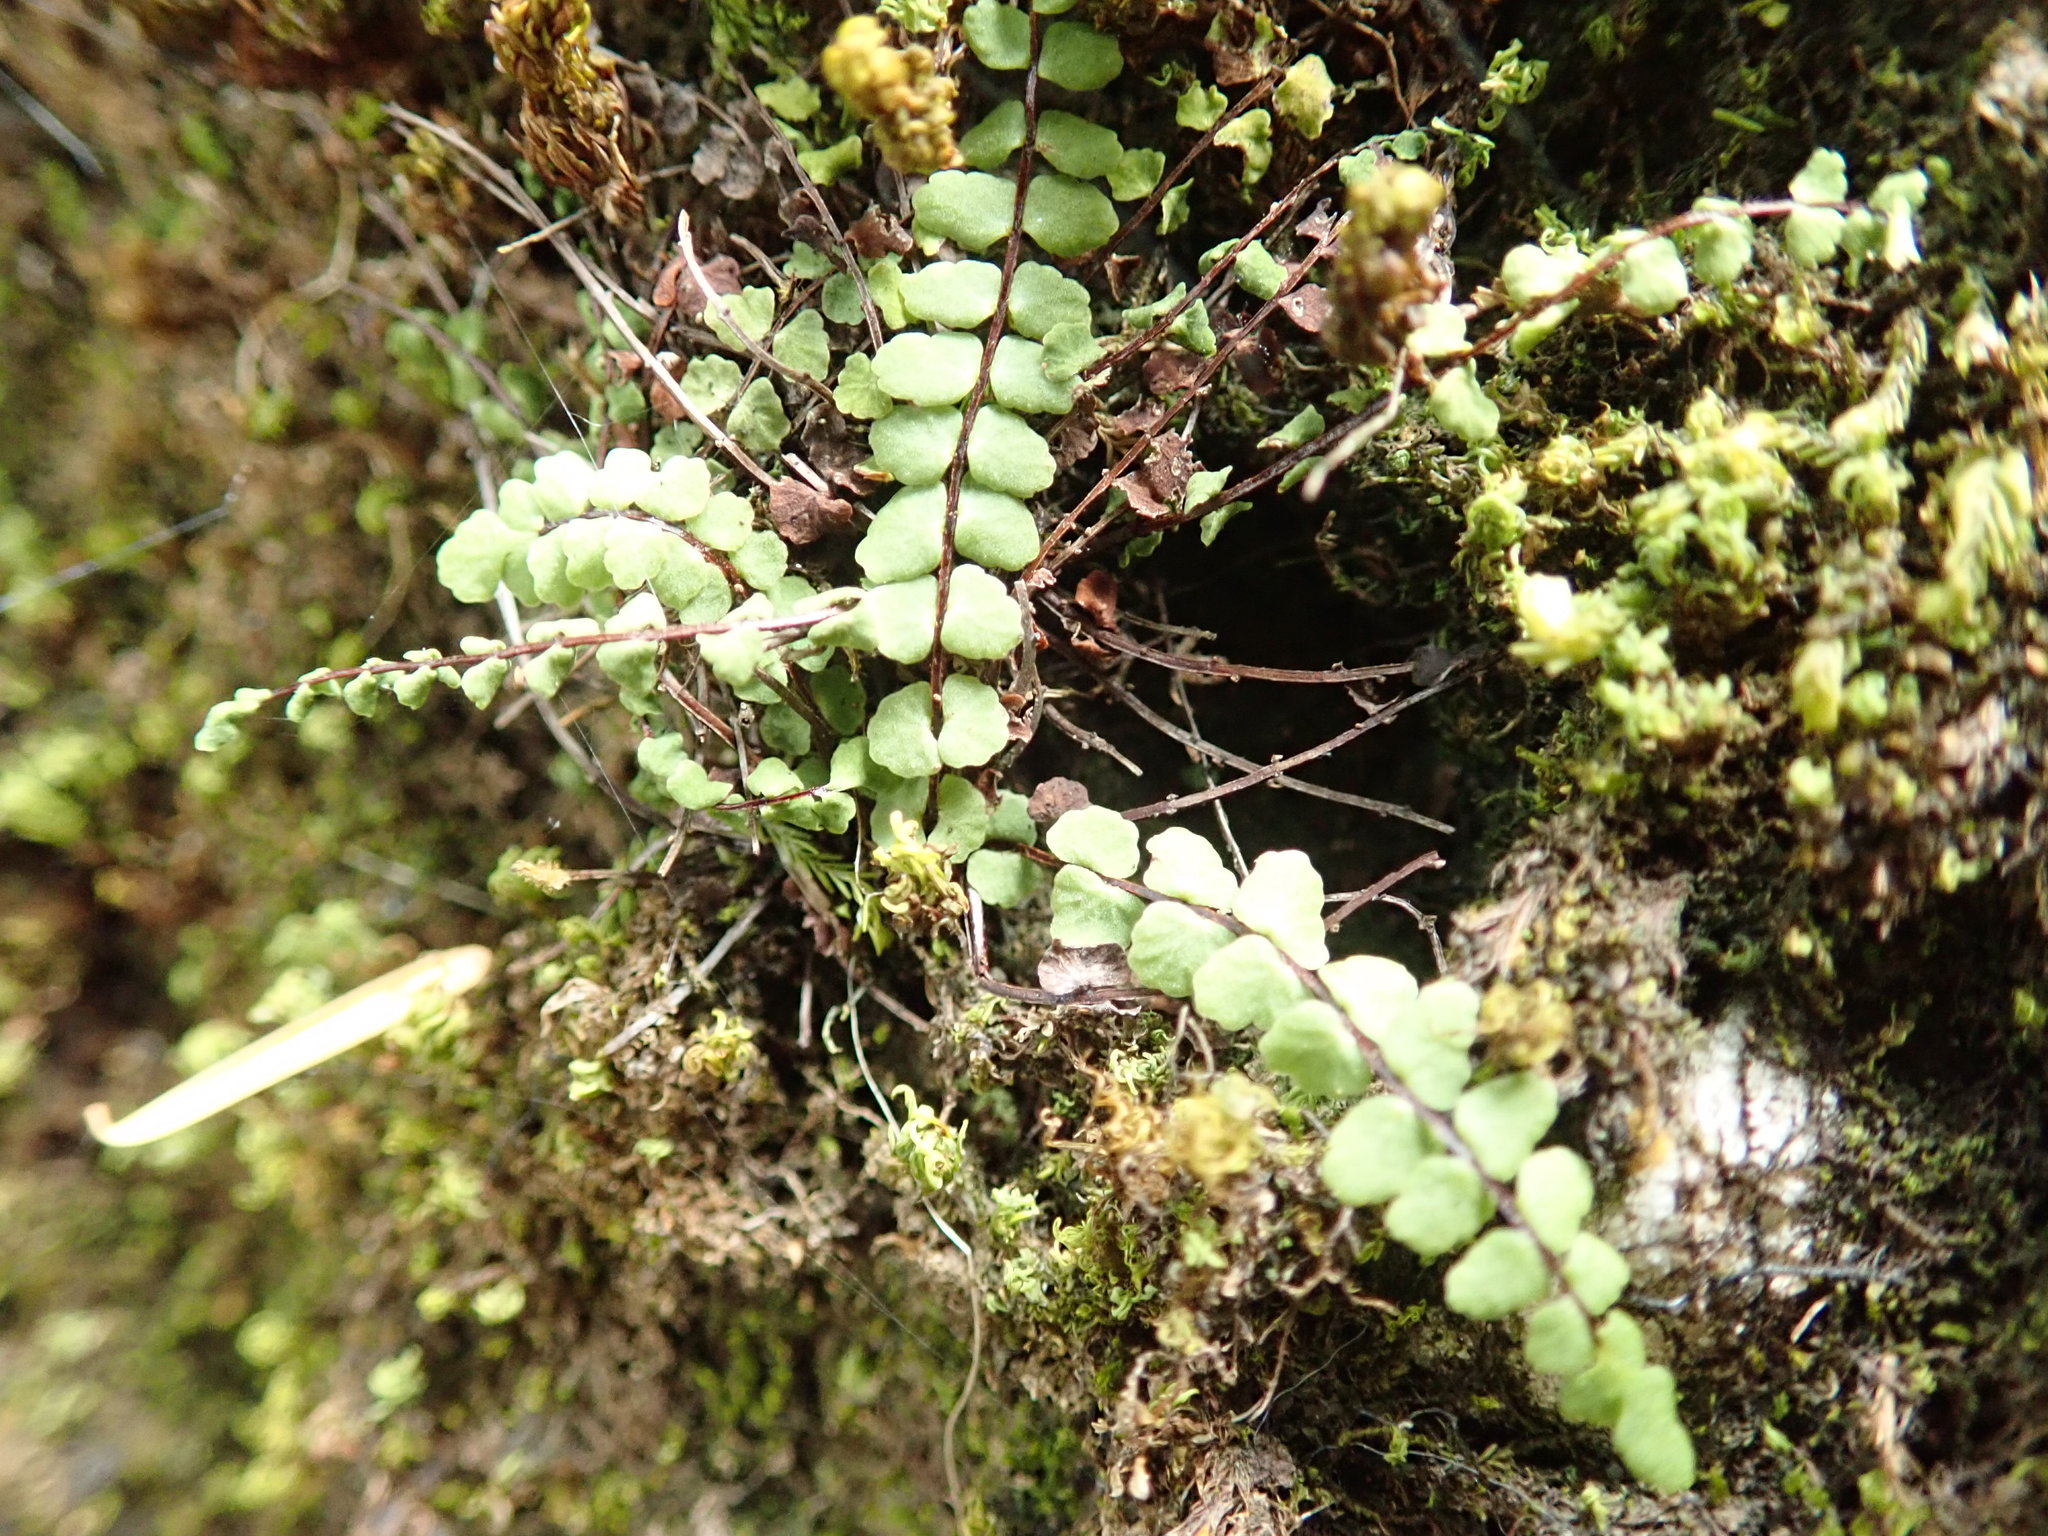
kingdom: Plantae
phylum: Tracheophyta
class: Polypodiopsida
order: Polypodiales
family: Aspleniaceae
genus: Asplenium
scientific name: Asplenium trichomanes
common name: Maidenhair spleenwort
